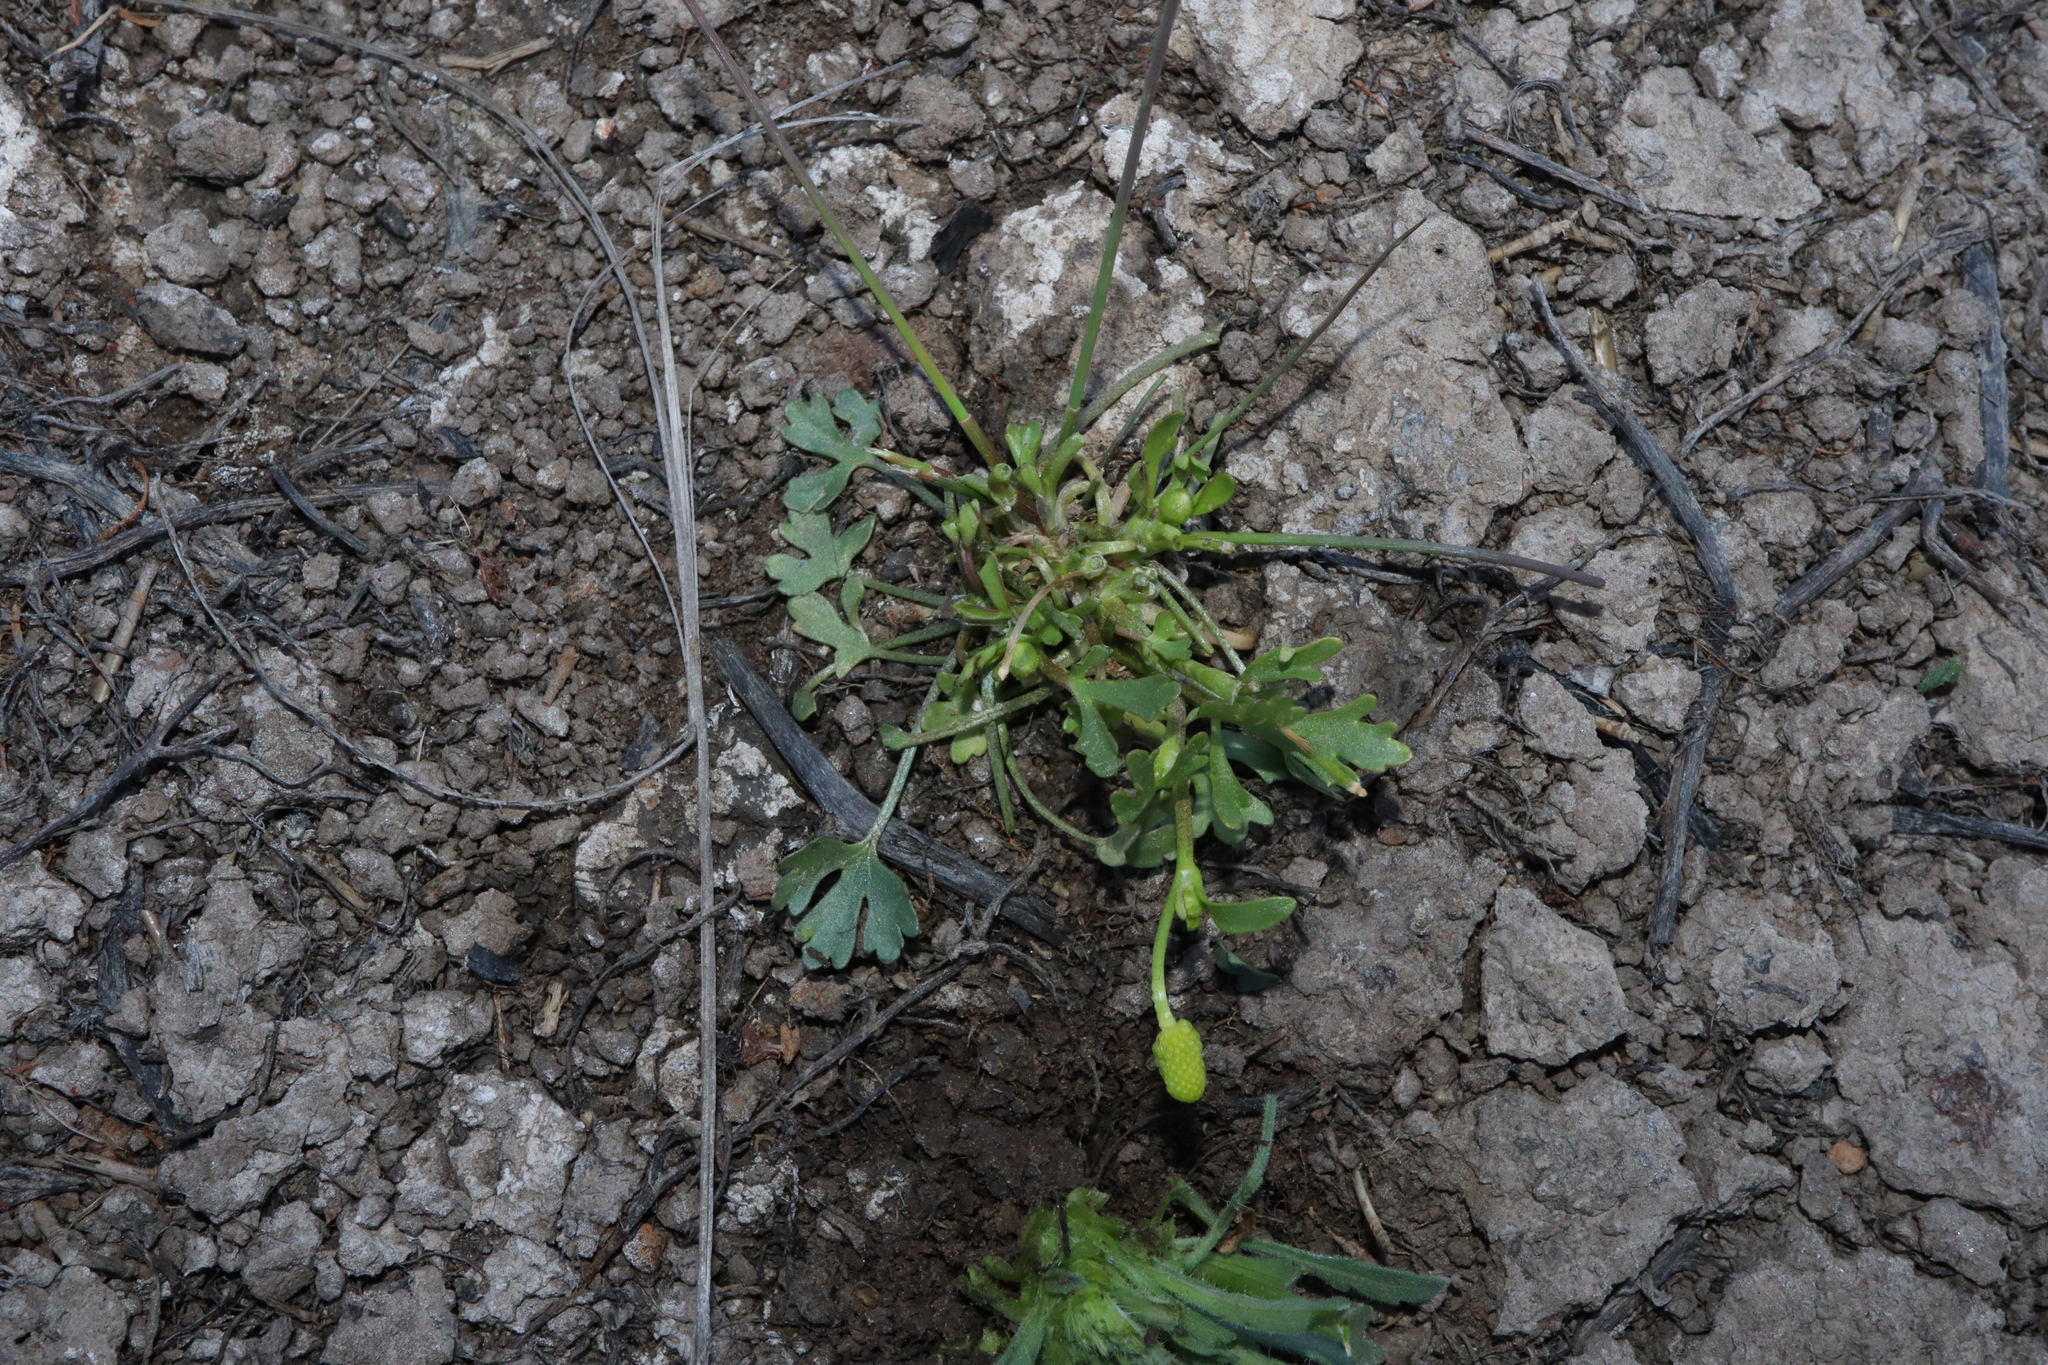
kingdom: Plantae
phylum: Tracheophyta
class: Magnoliopsida
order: Ranunculales
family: Ranunculaceae
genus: Ranunculus
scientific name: Ranunculus sceleratus
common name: Celery-leaved buttercup
